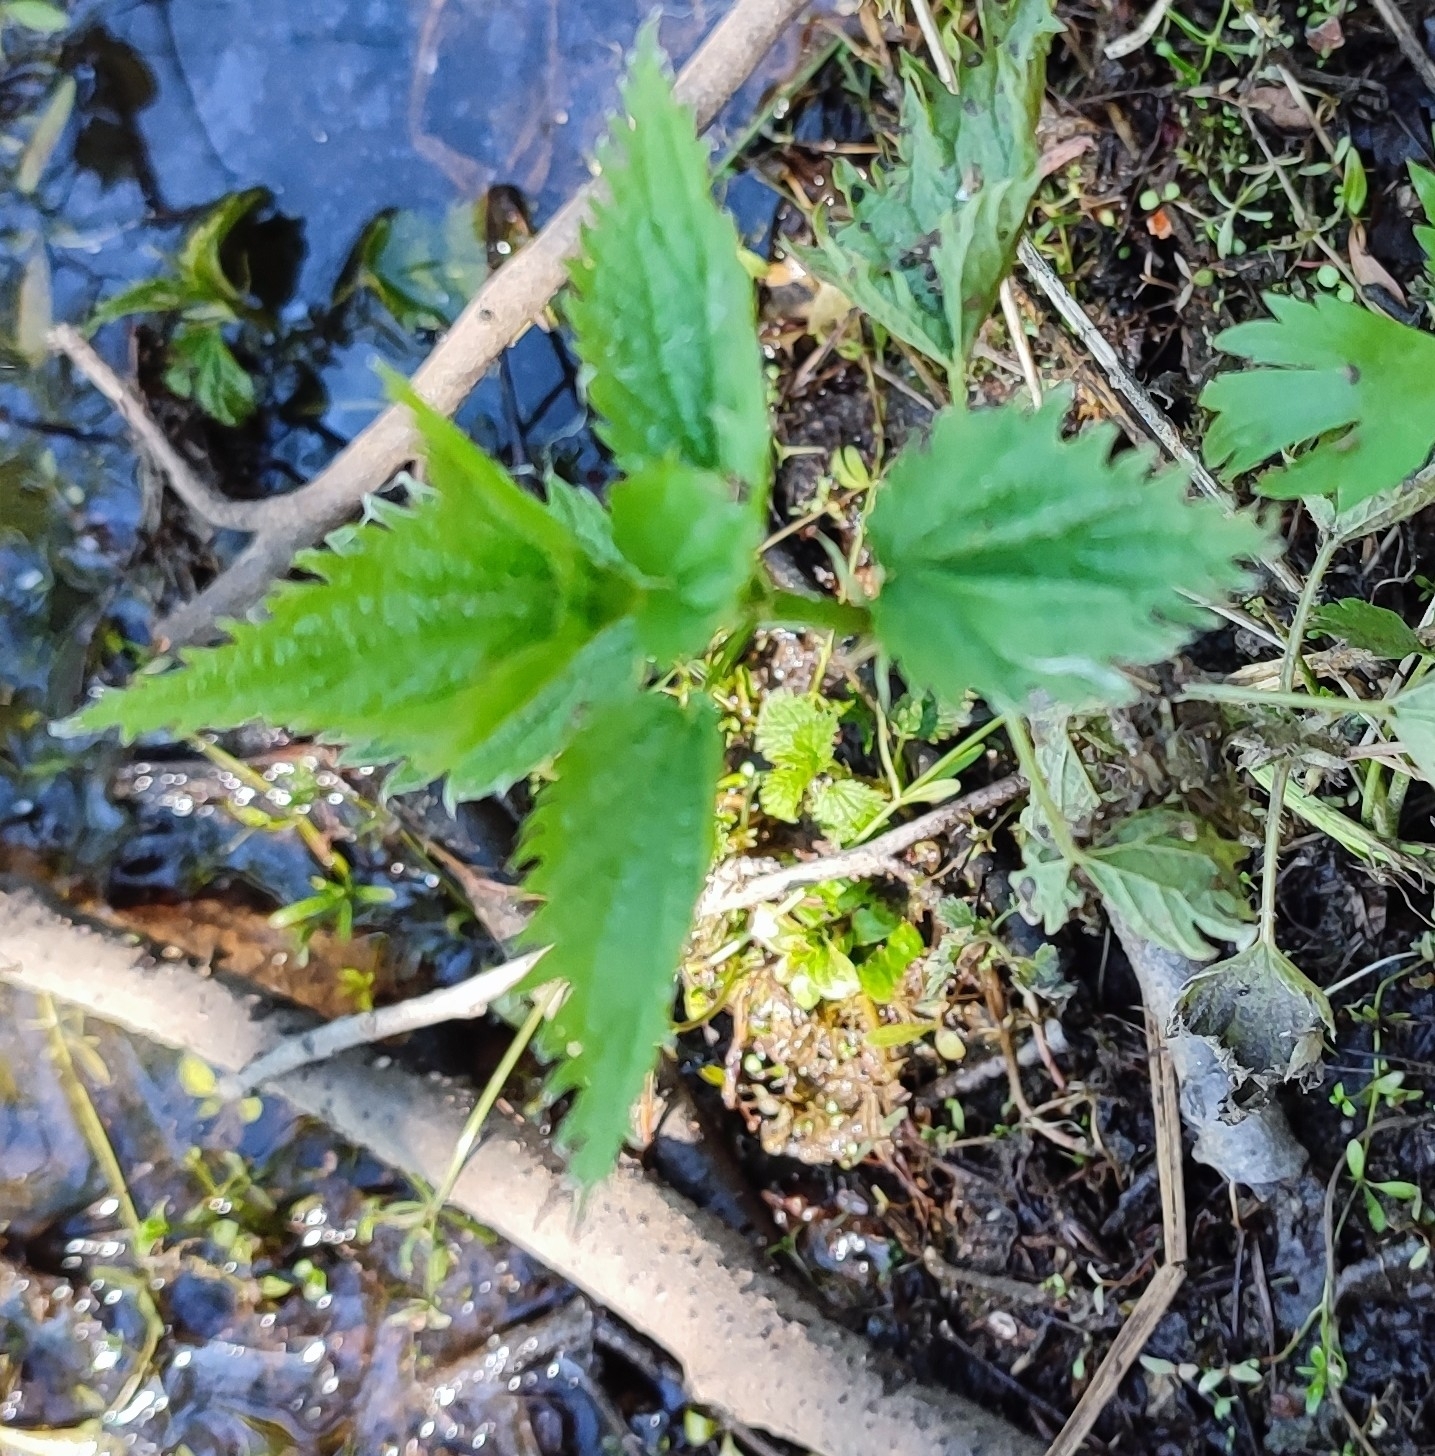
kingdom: Plantae
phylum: Tracheophyta
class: Magnoliopsida
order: Rosales
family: Urticaceae
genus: Urtica
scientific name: Urtica dioica
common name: Common nettle
